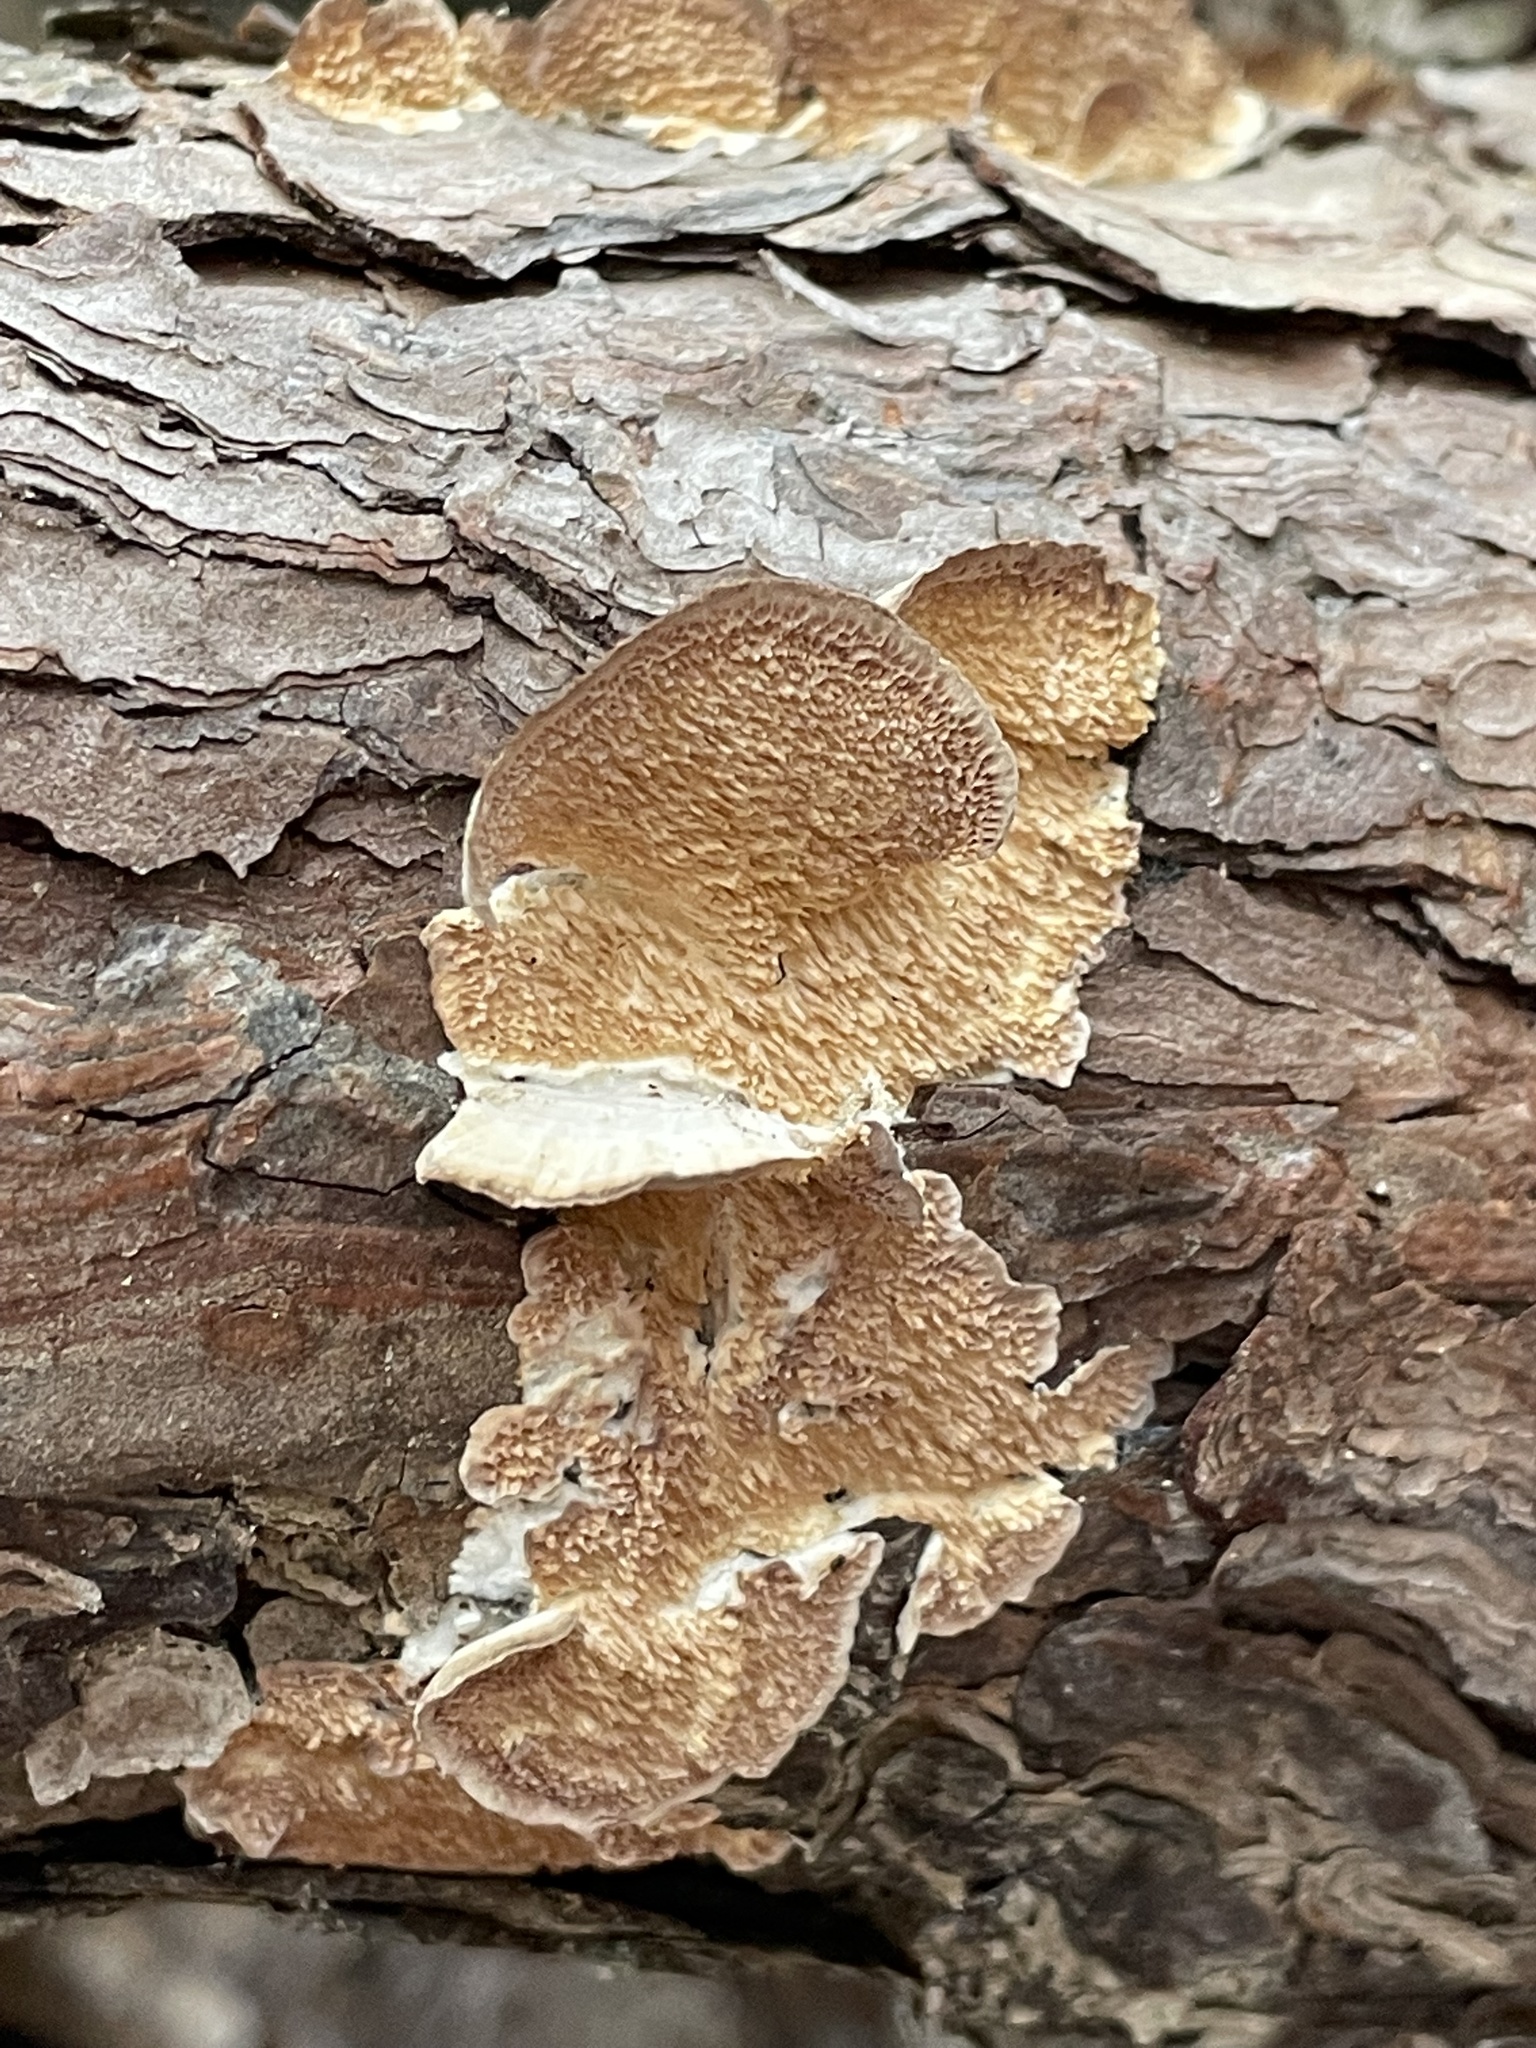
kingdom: Fungi
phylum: Basidiomycota
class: Agaricomycetes
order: Hymenochaetales
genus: Trichaptum
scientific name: Trichaptum abietinum
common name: Purplepore bracket
